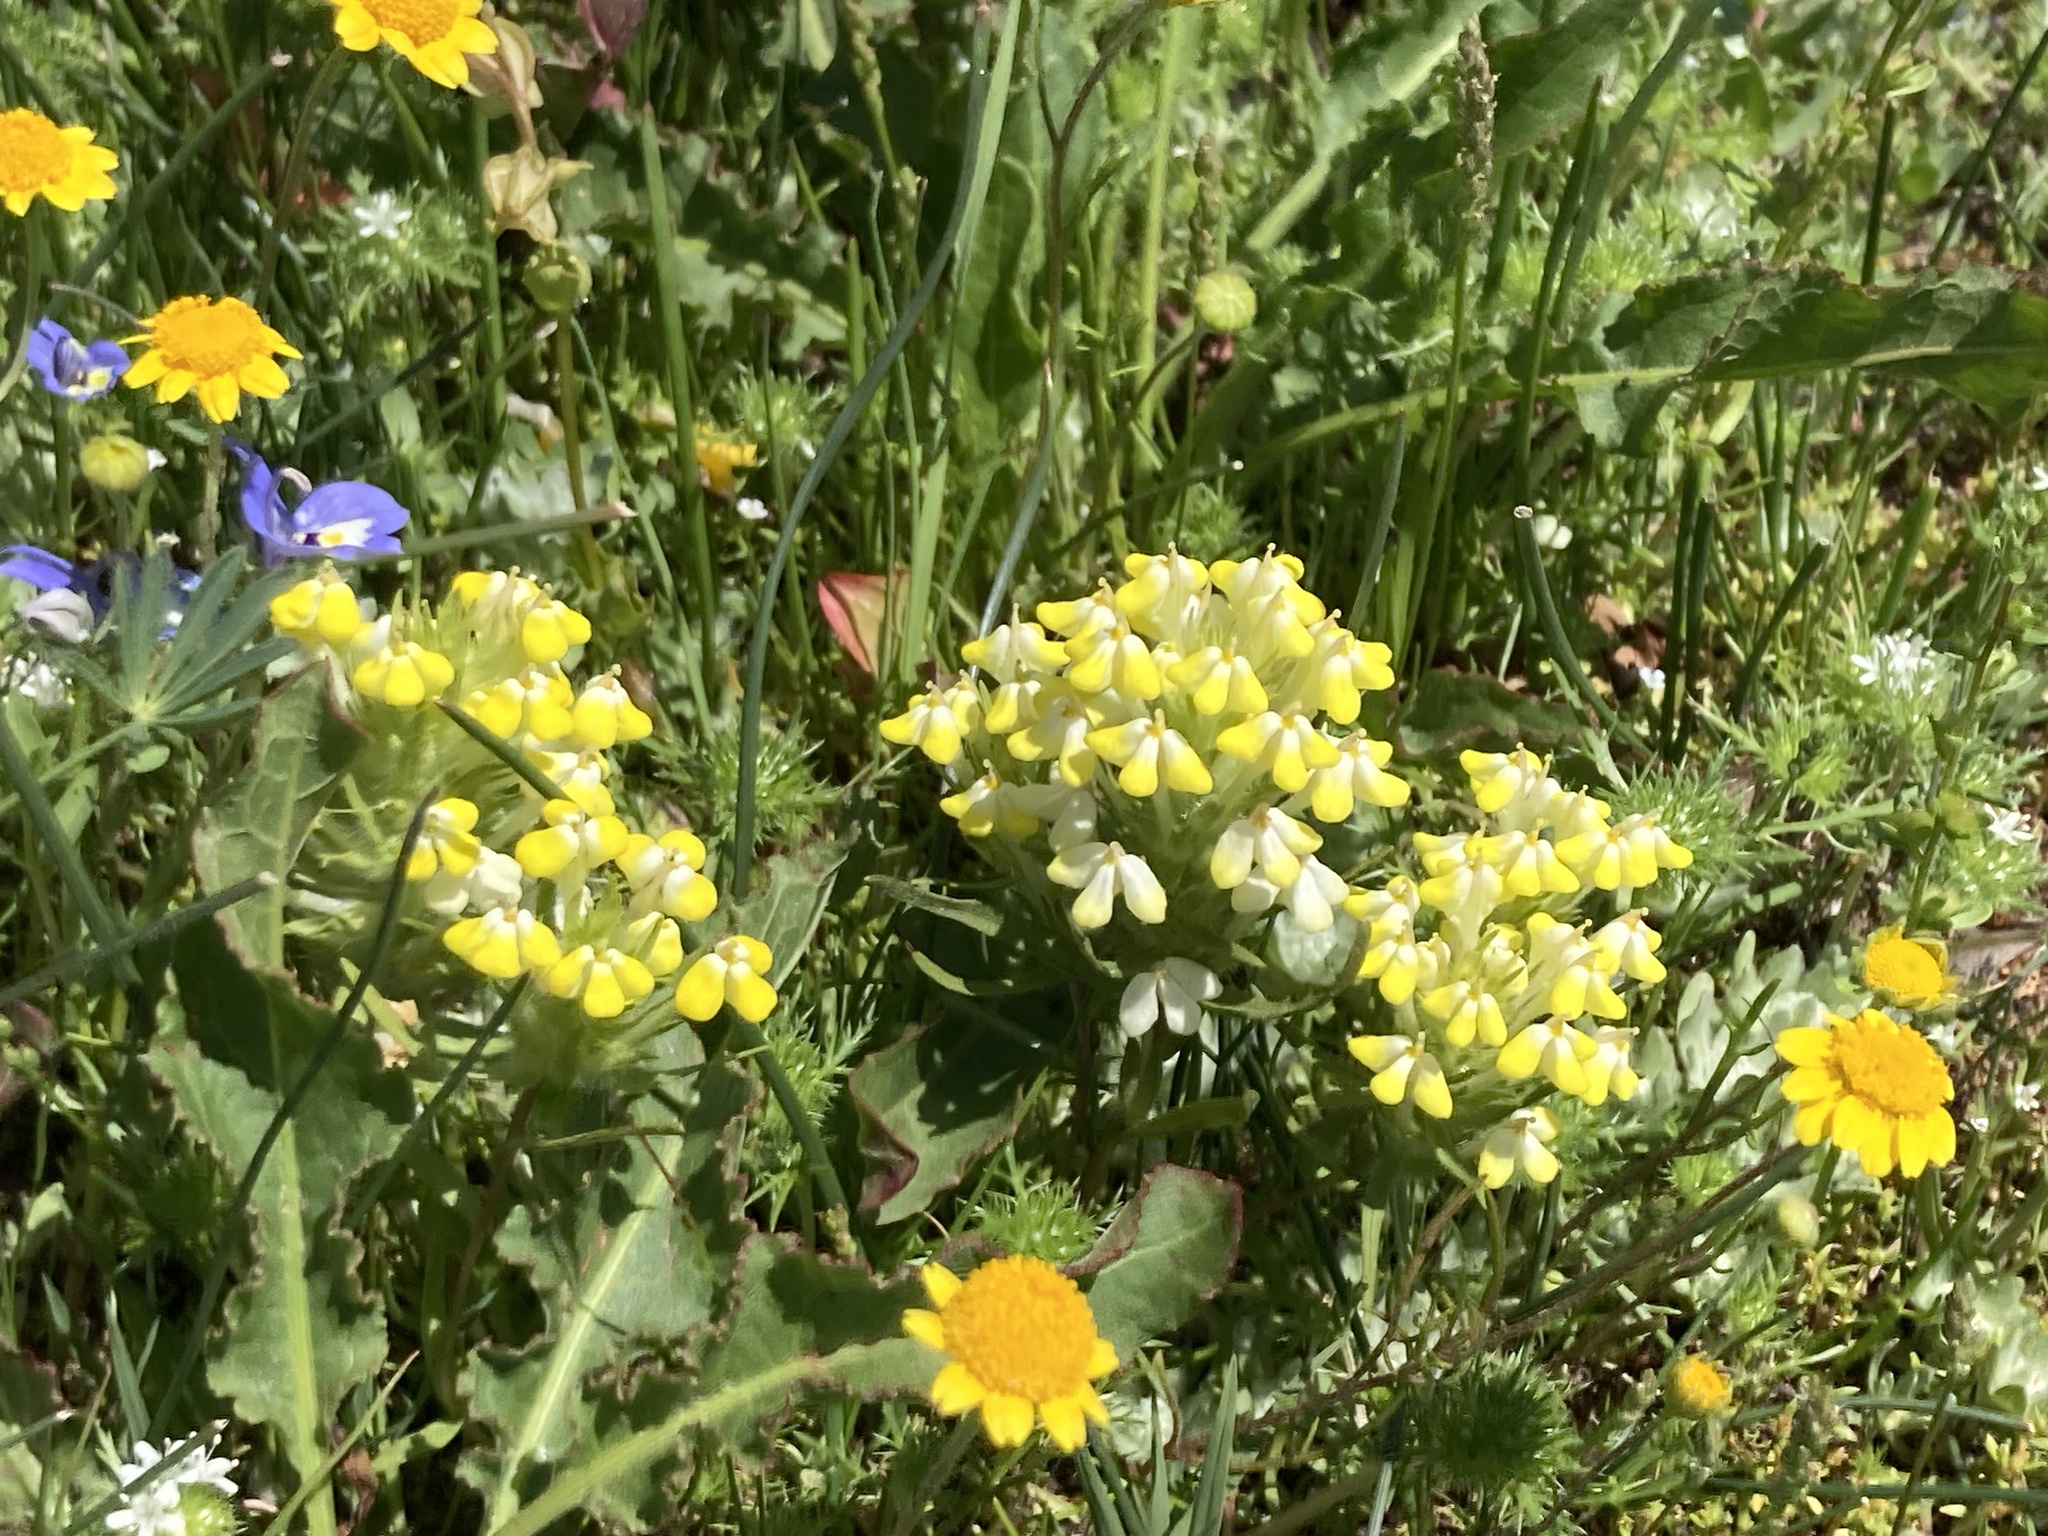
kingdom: Plantae
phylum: Tracheophyta
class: Magnoliopsida
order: Lamiales
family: Orobanchaceae
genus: Castilleja
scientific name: Castilleja campestris
